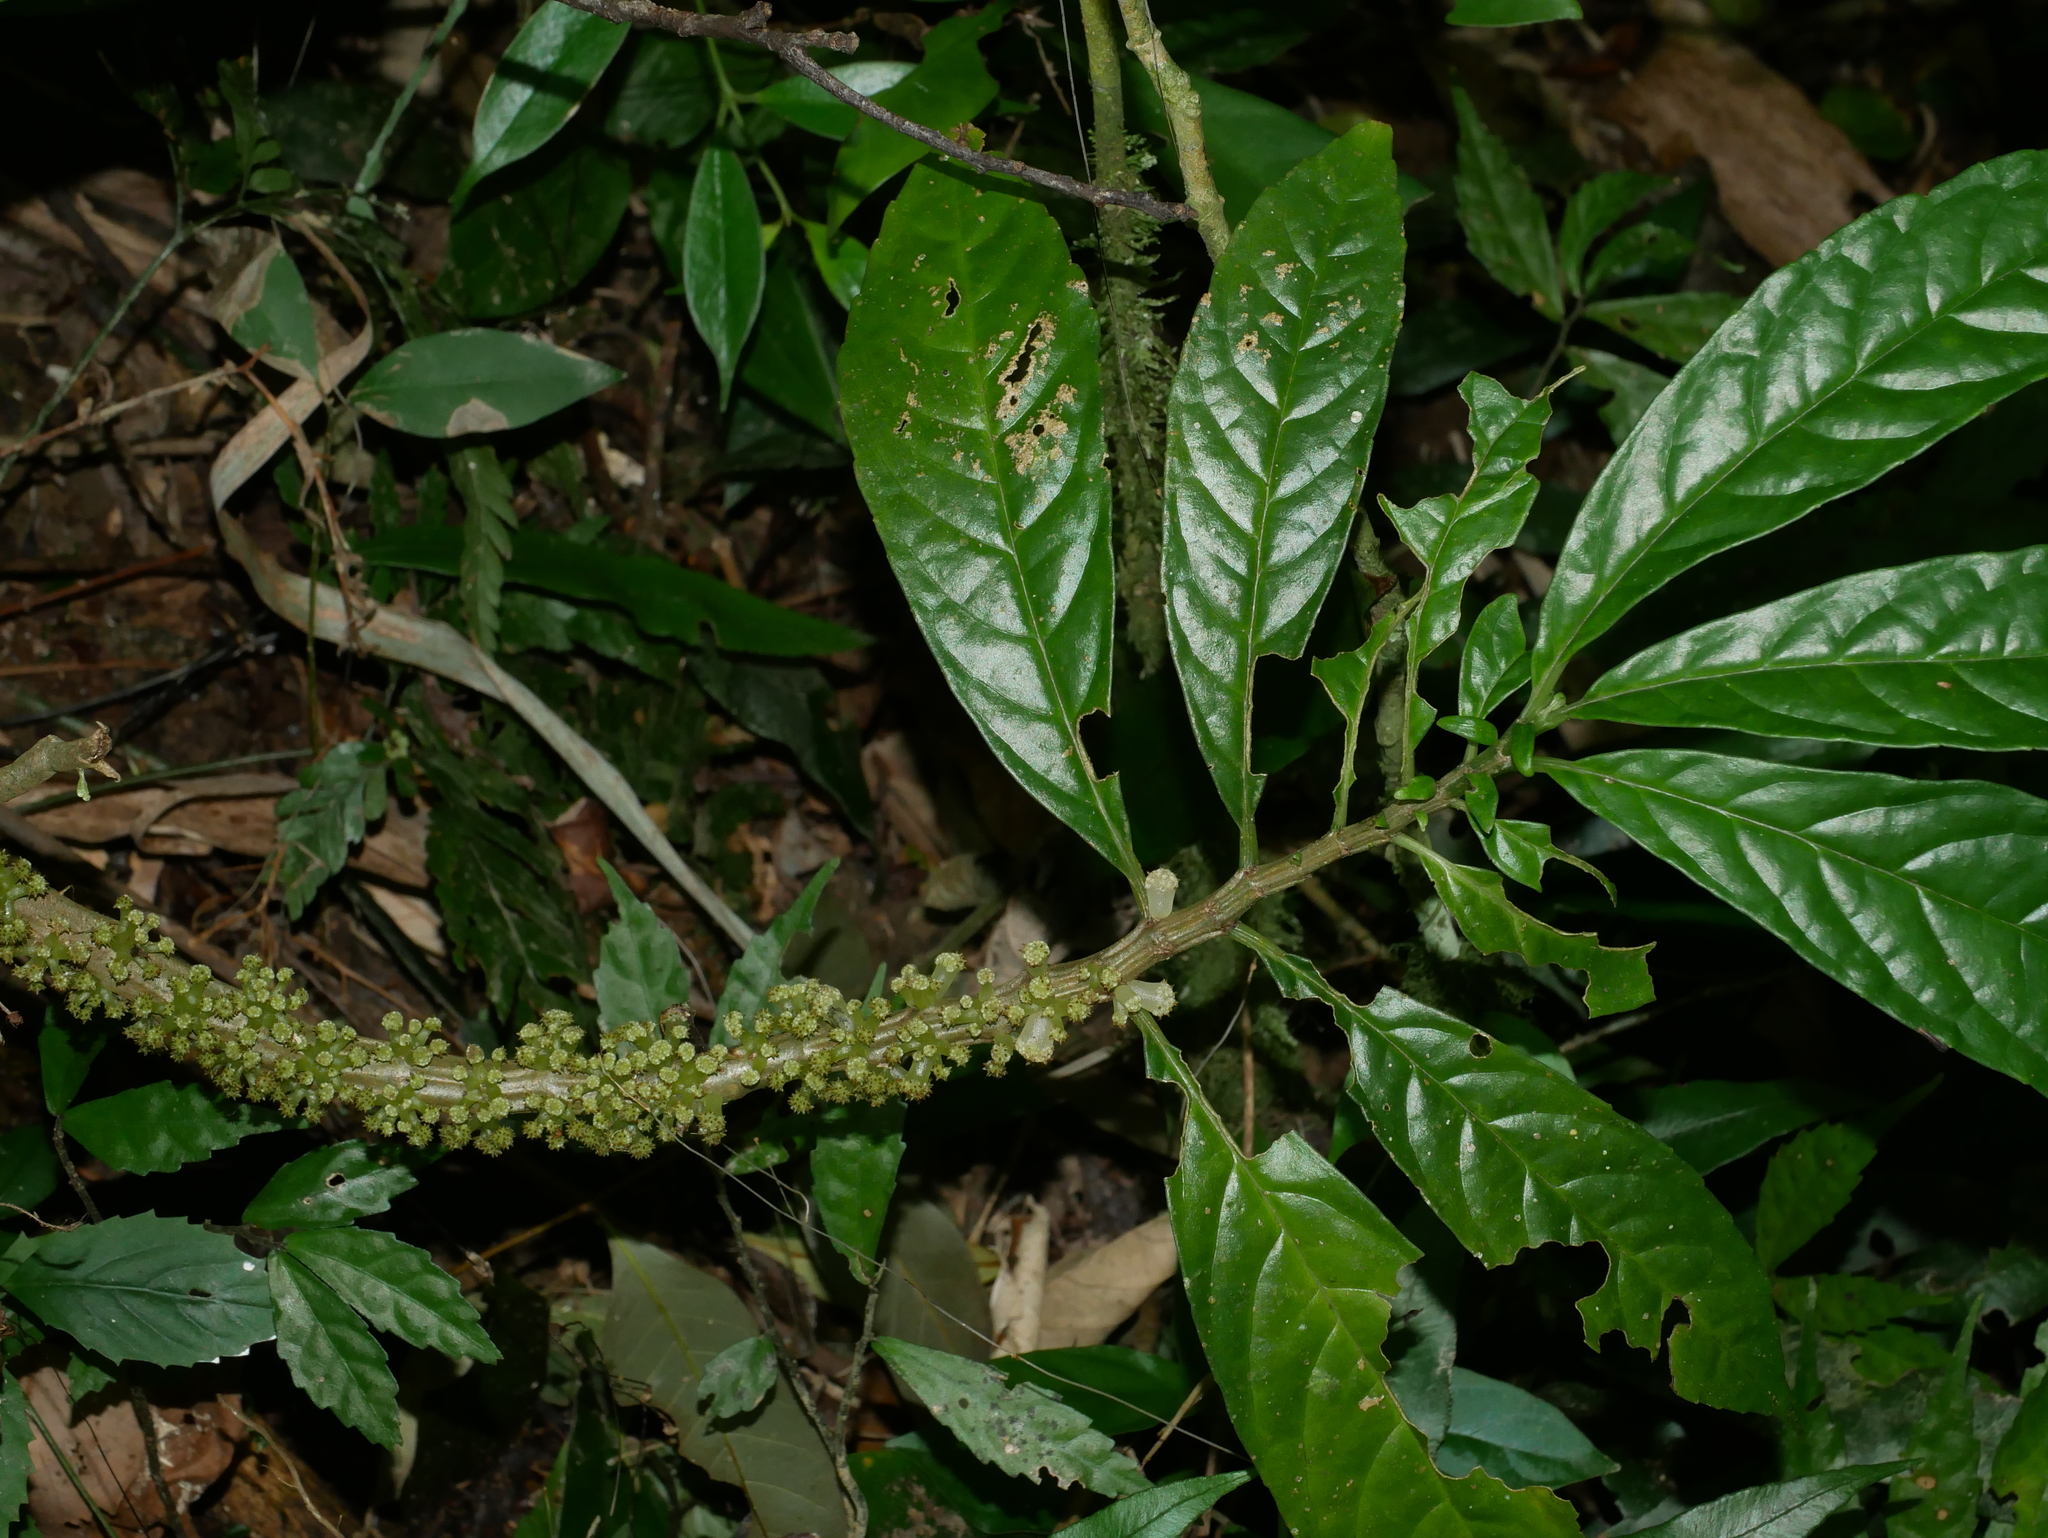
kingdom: Plantae
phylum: Tracheophyta
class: Magnoliopsida
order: Rosales
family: Urticaceae
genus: Procris
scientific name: Procris
